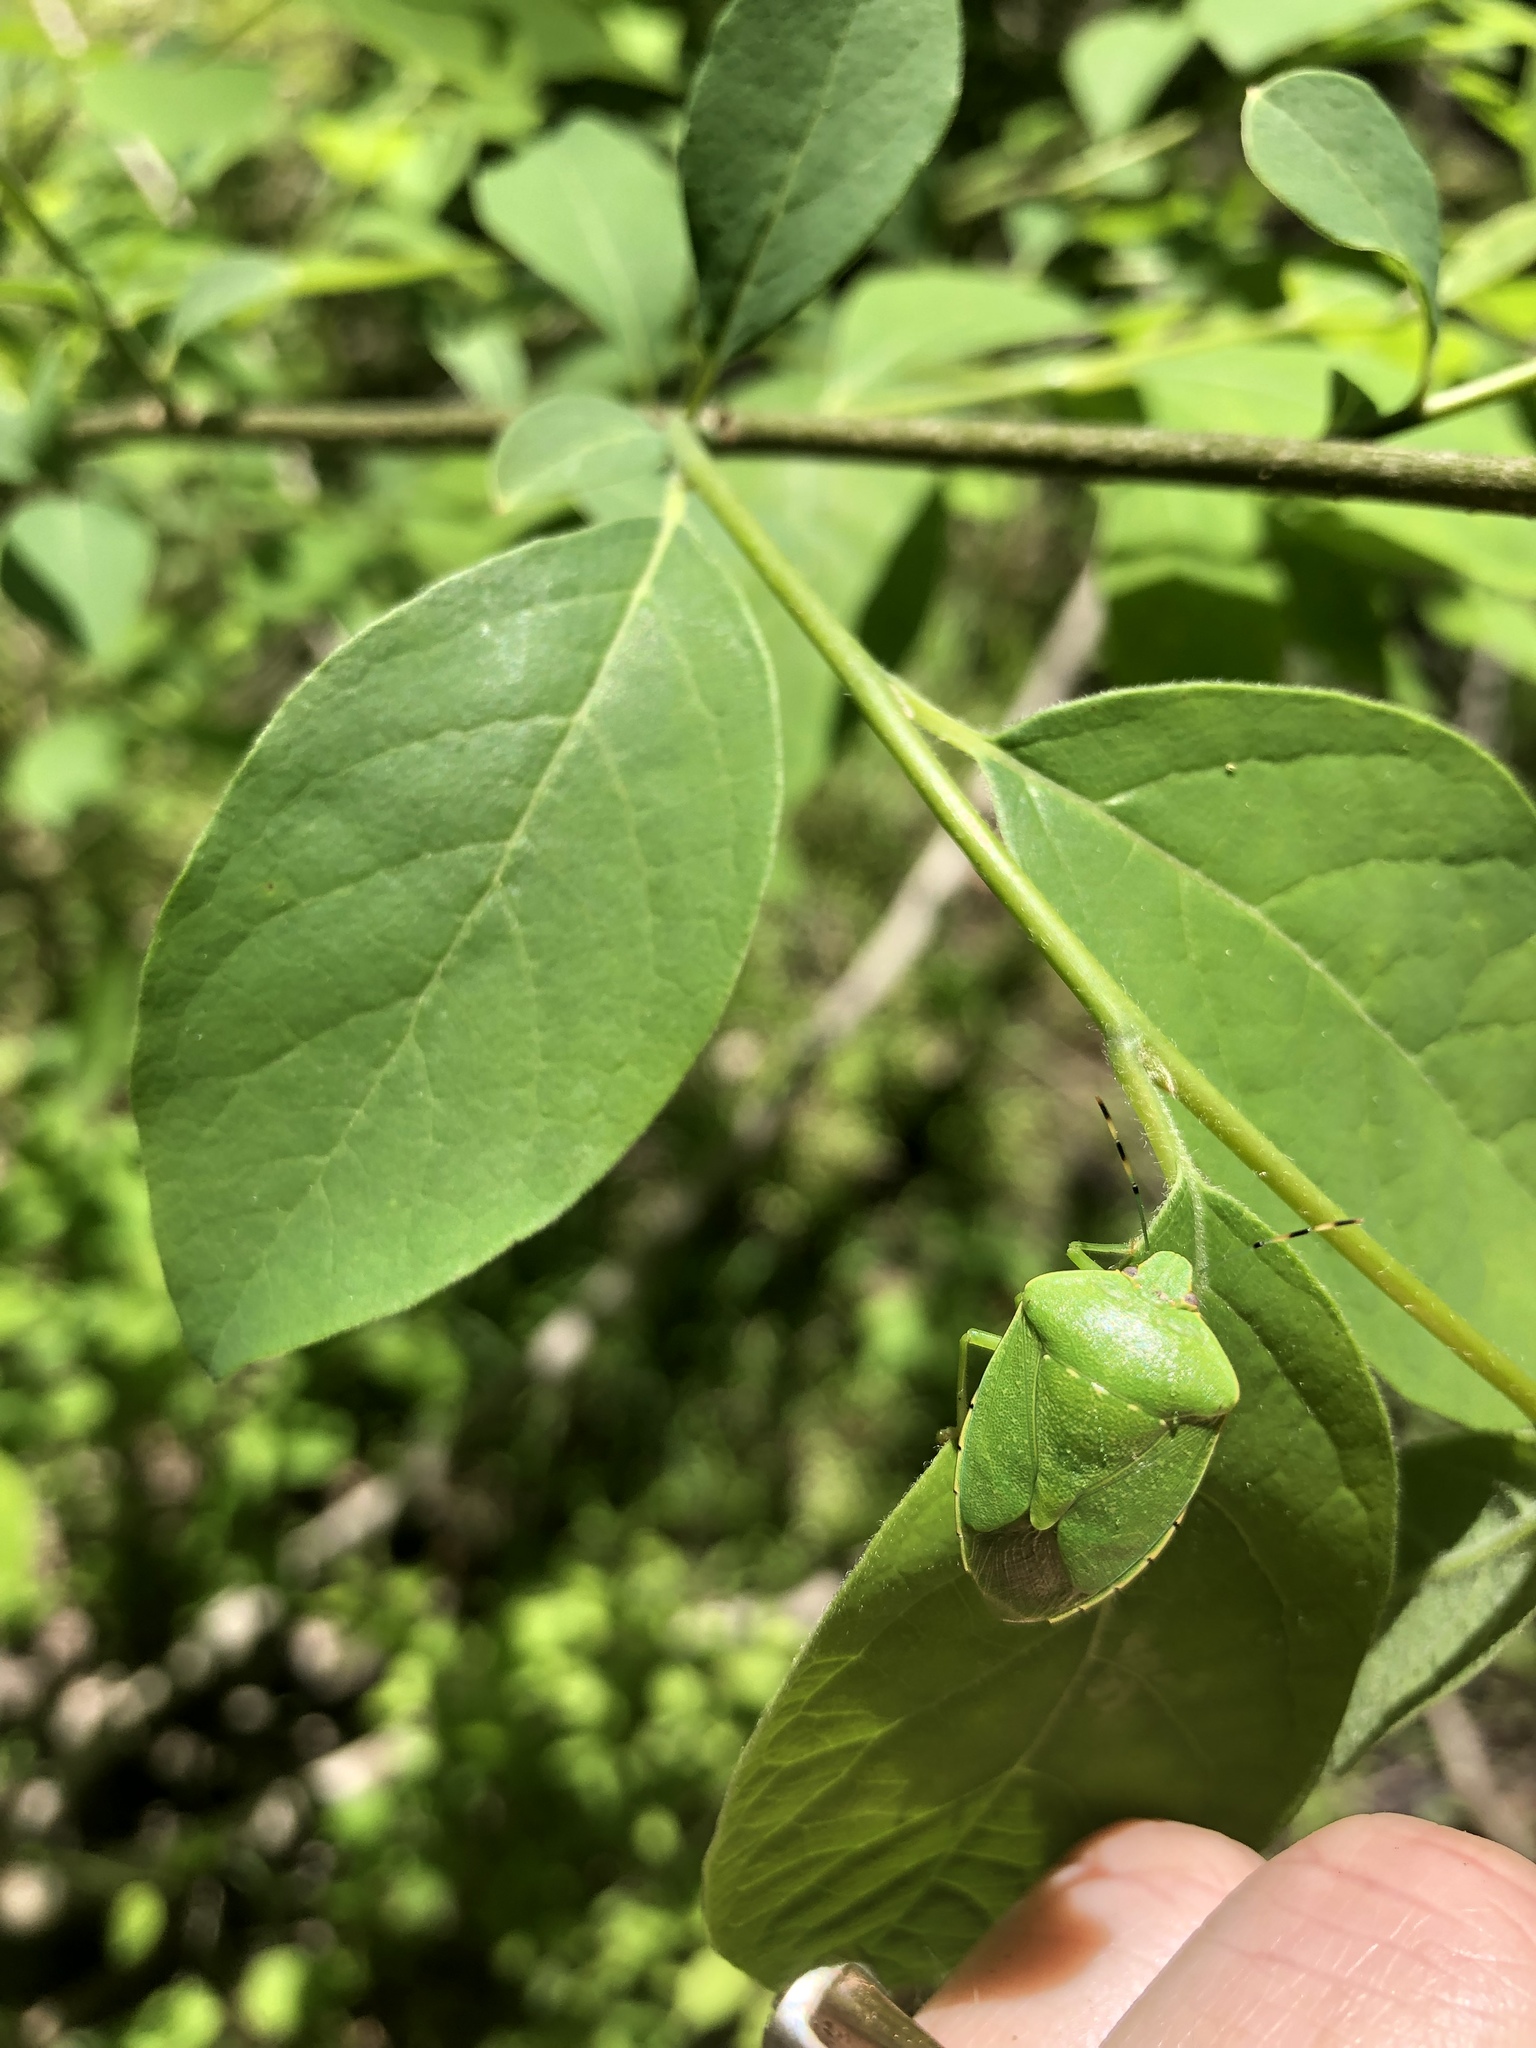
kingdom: Animalia
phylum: Arthropoda
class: Insecta
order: Hemiptera
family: Pentatomidae
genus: Chinavia
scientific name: Chinavia hilaris
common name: Green stink bug
